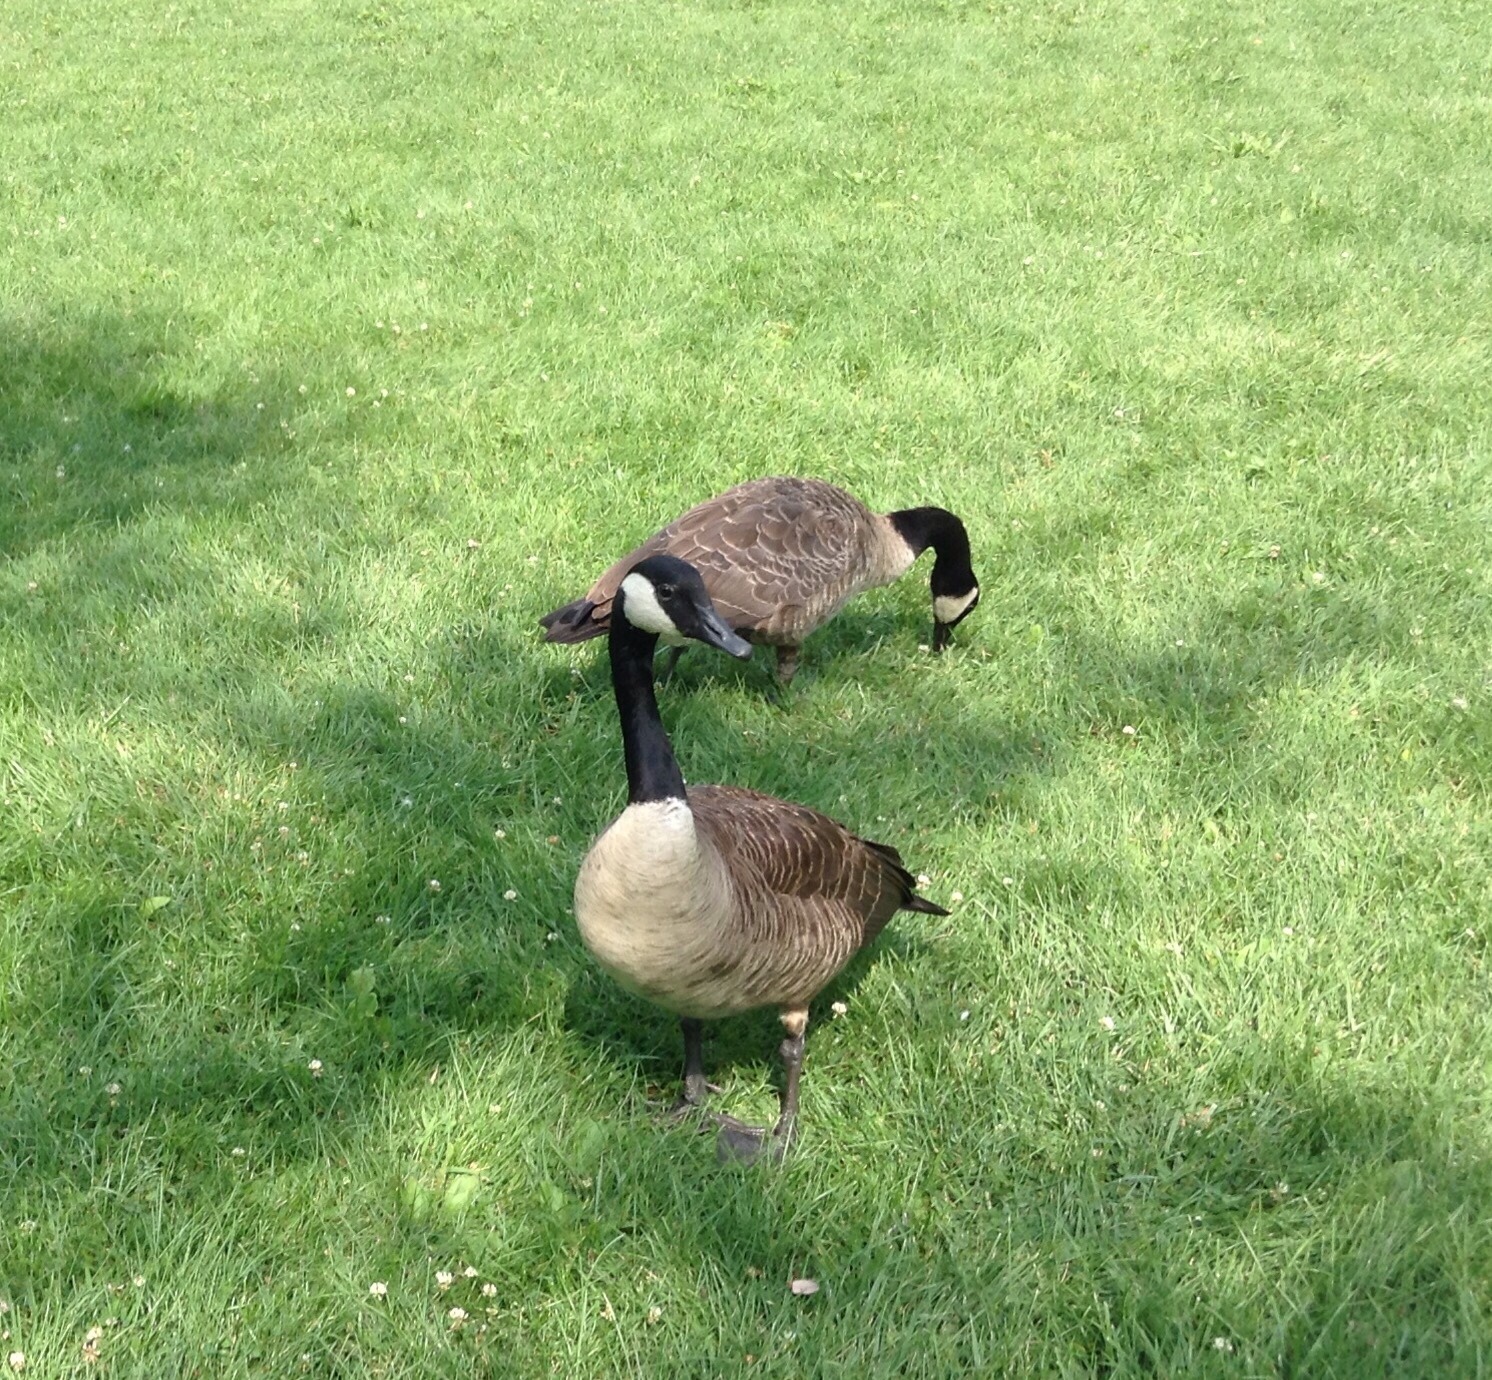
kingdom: Animalia
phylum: Chordata
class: Aves
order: Anseriformes
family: Anatidae
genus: Branta
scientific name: Branta canadensis
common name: Canada goose
